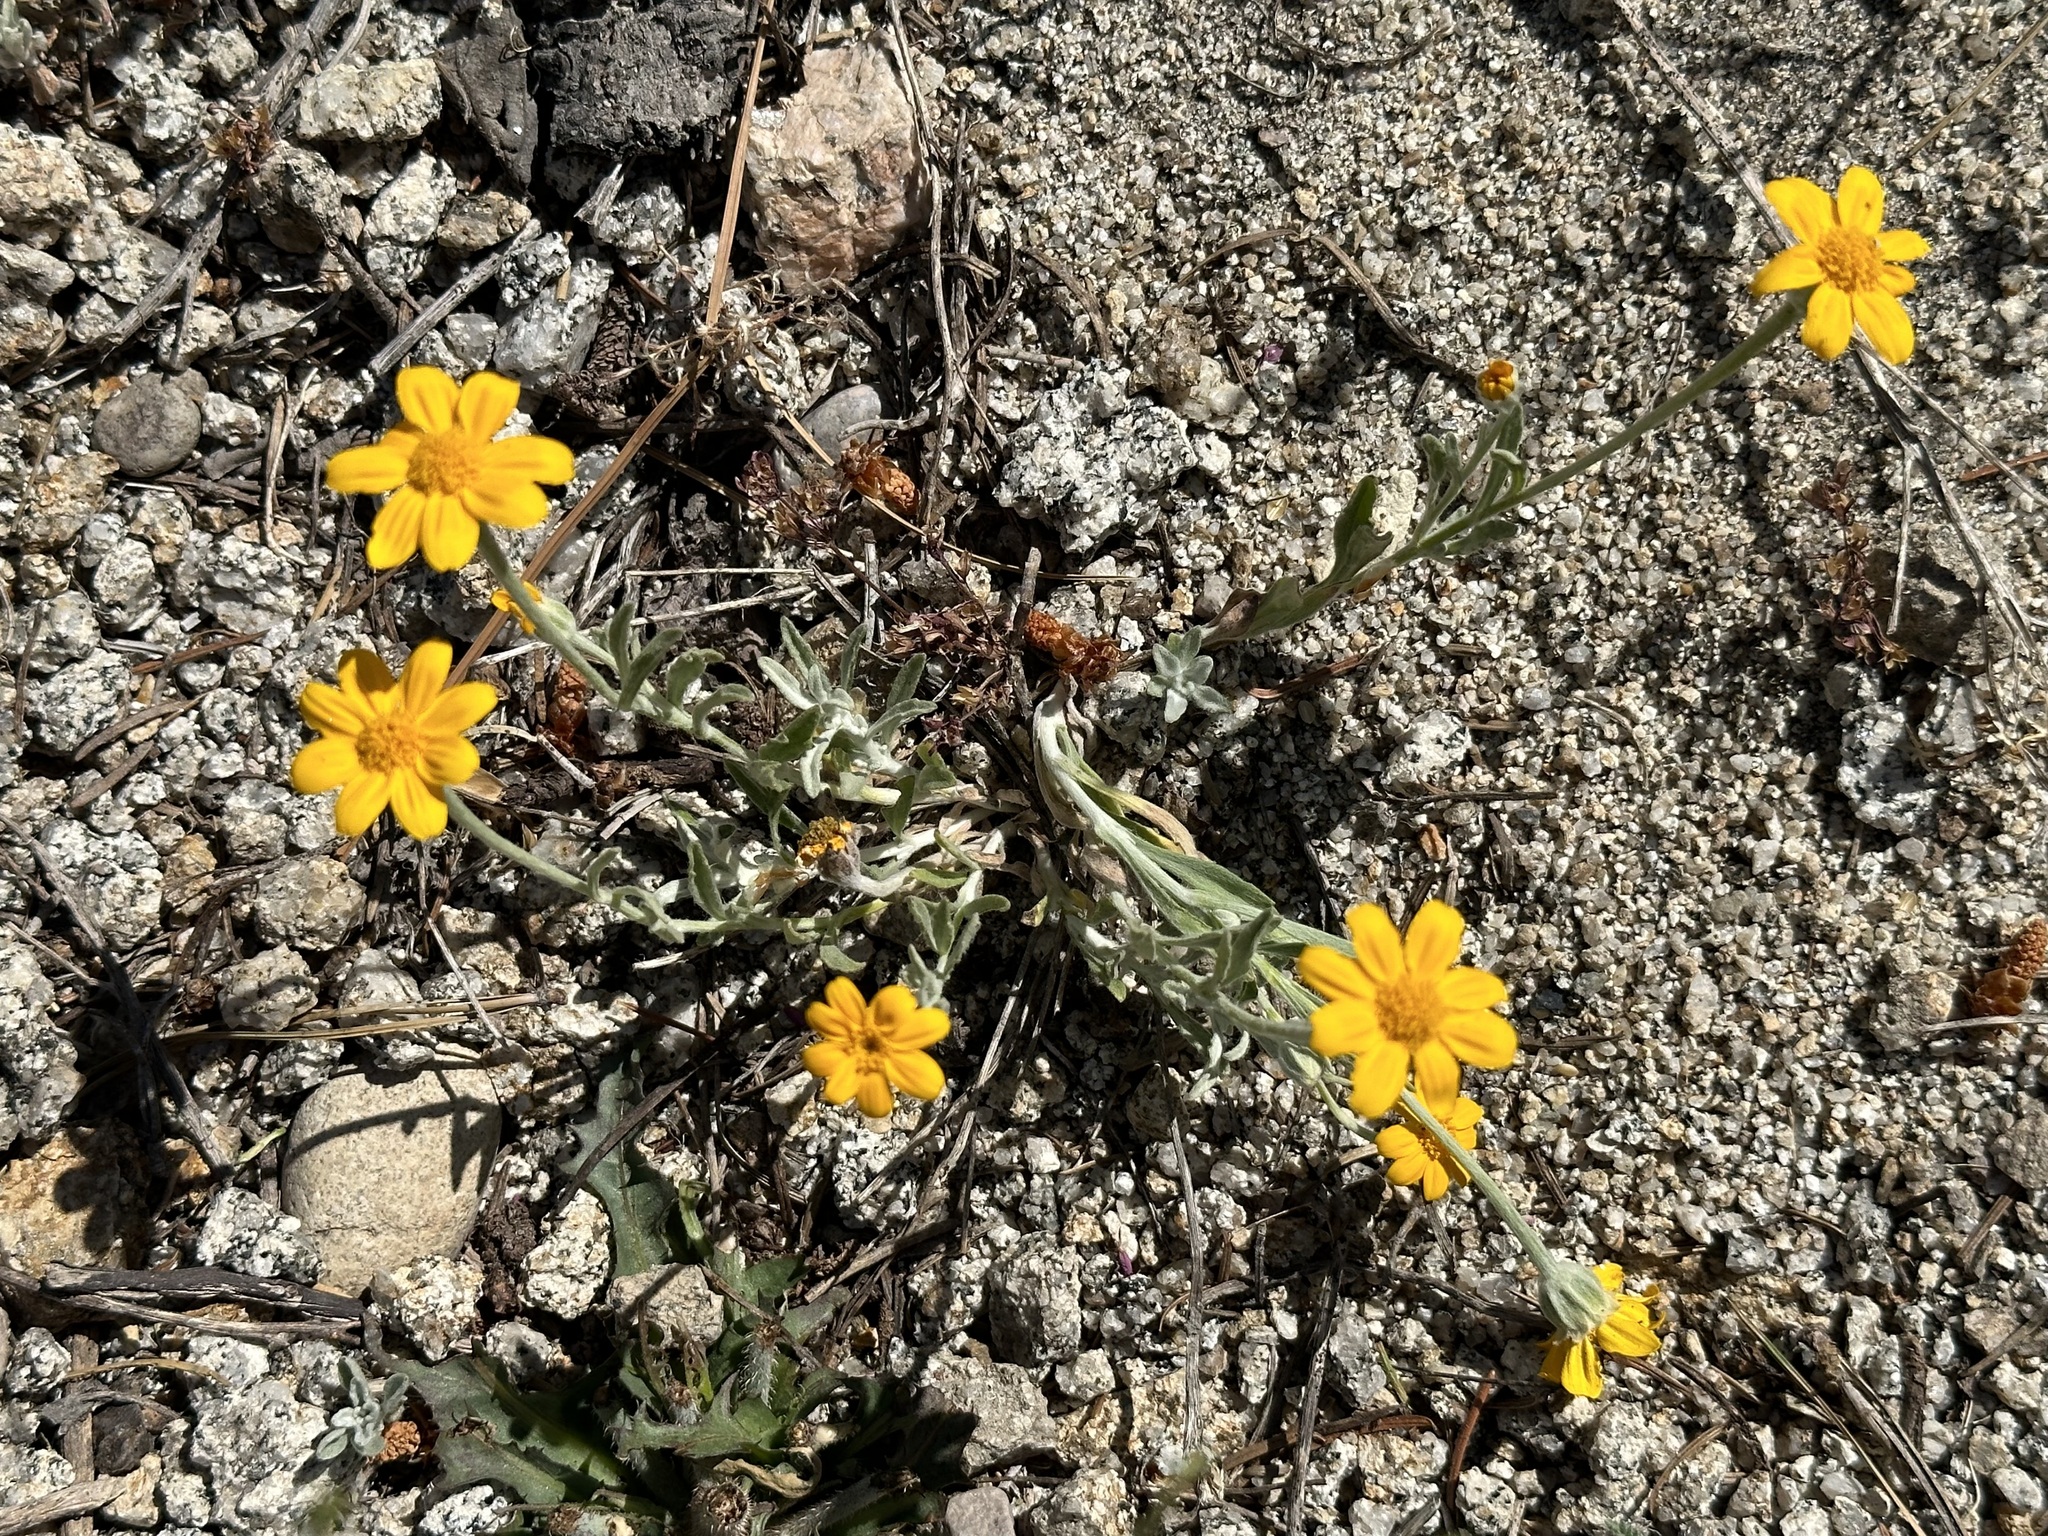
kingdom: Plantae
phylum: Tracheophyta
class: Magnoliopsida
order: Asterales
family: Asteraceae
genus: Eriophyllum
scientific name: Eriophyllum lanatum
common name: Common woolly-sunflower
